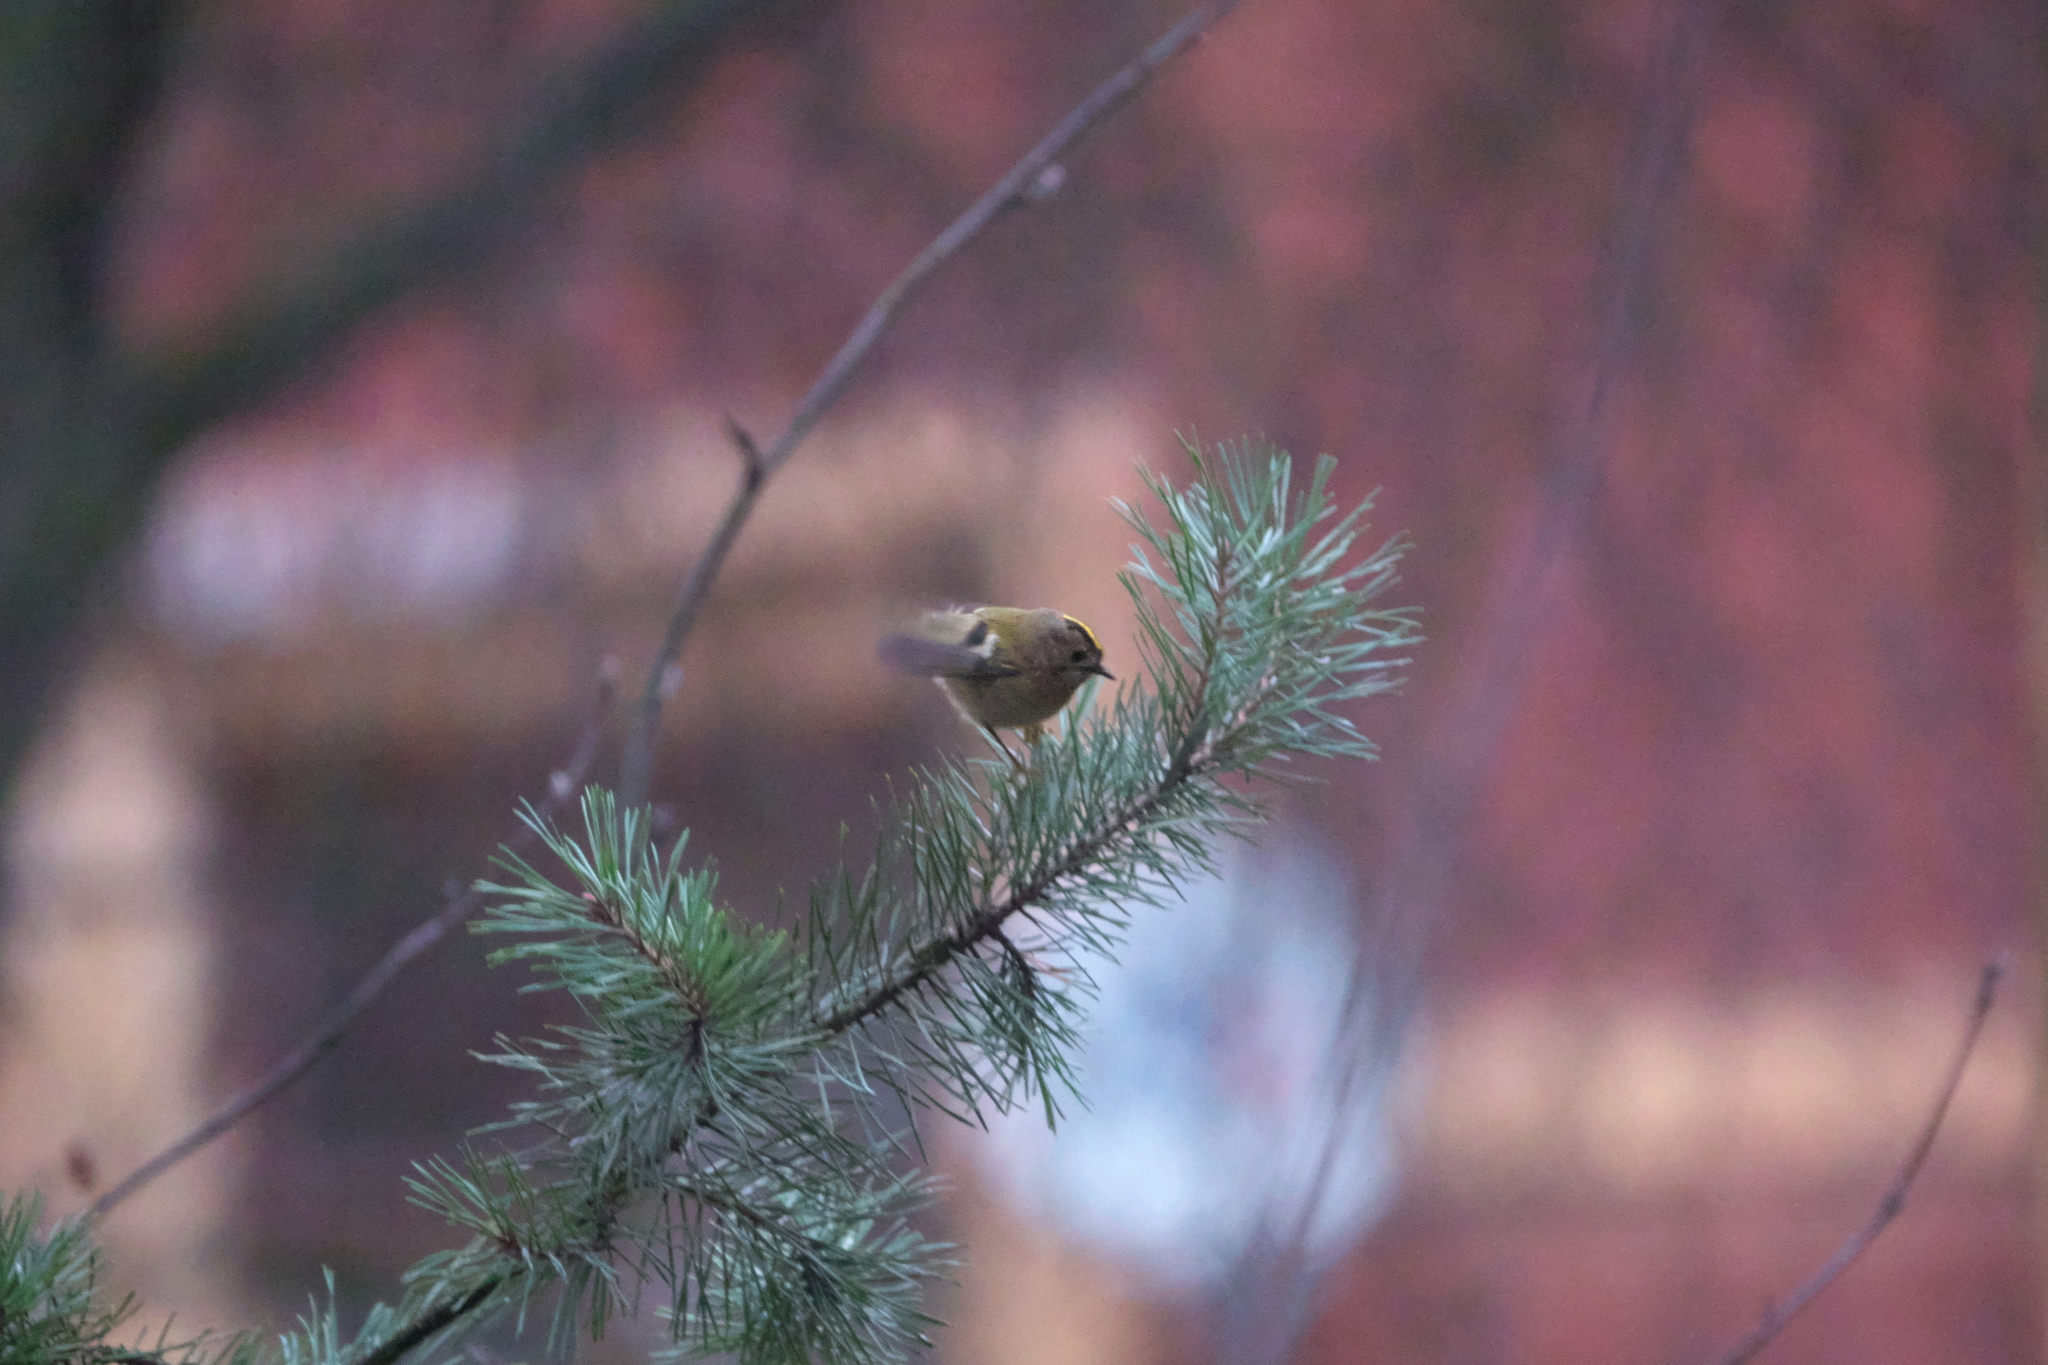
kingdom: Animalia
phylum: Chordata
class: Aves
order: Passeriformes
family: Regulidae
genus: Regulus
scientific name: Regulus regulus
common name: Goldcrest
